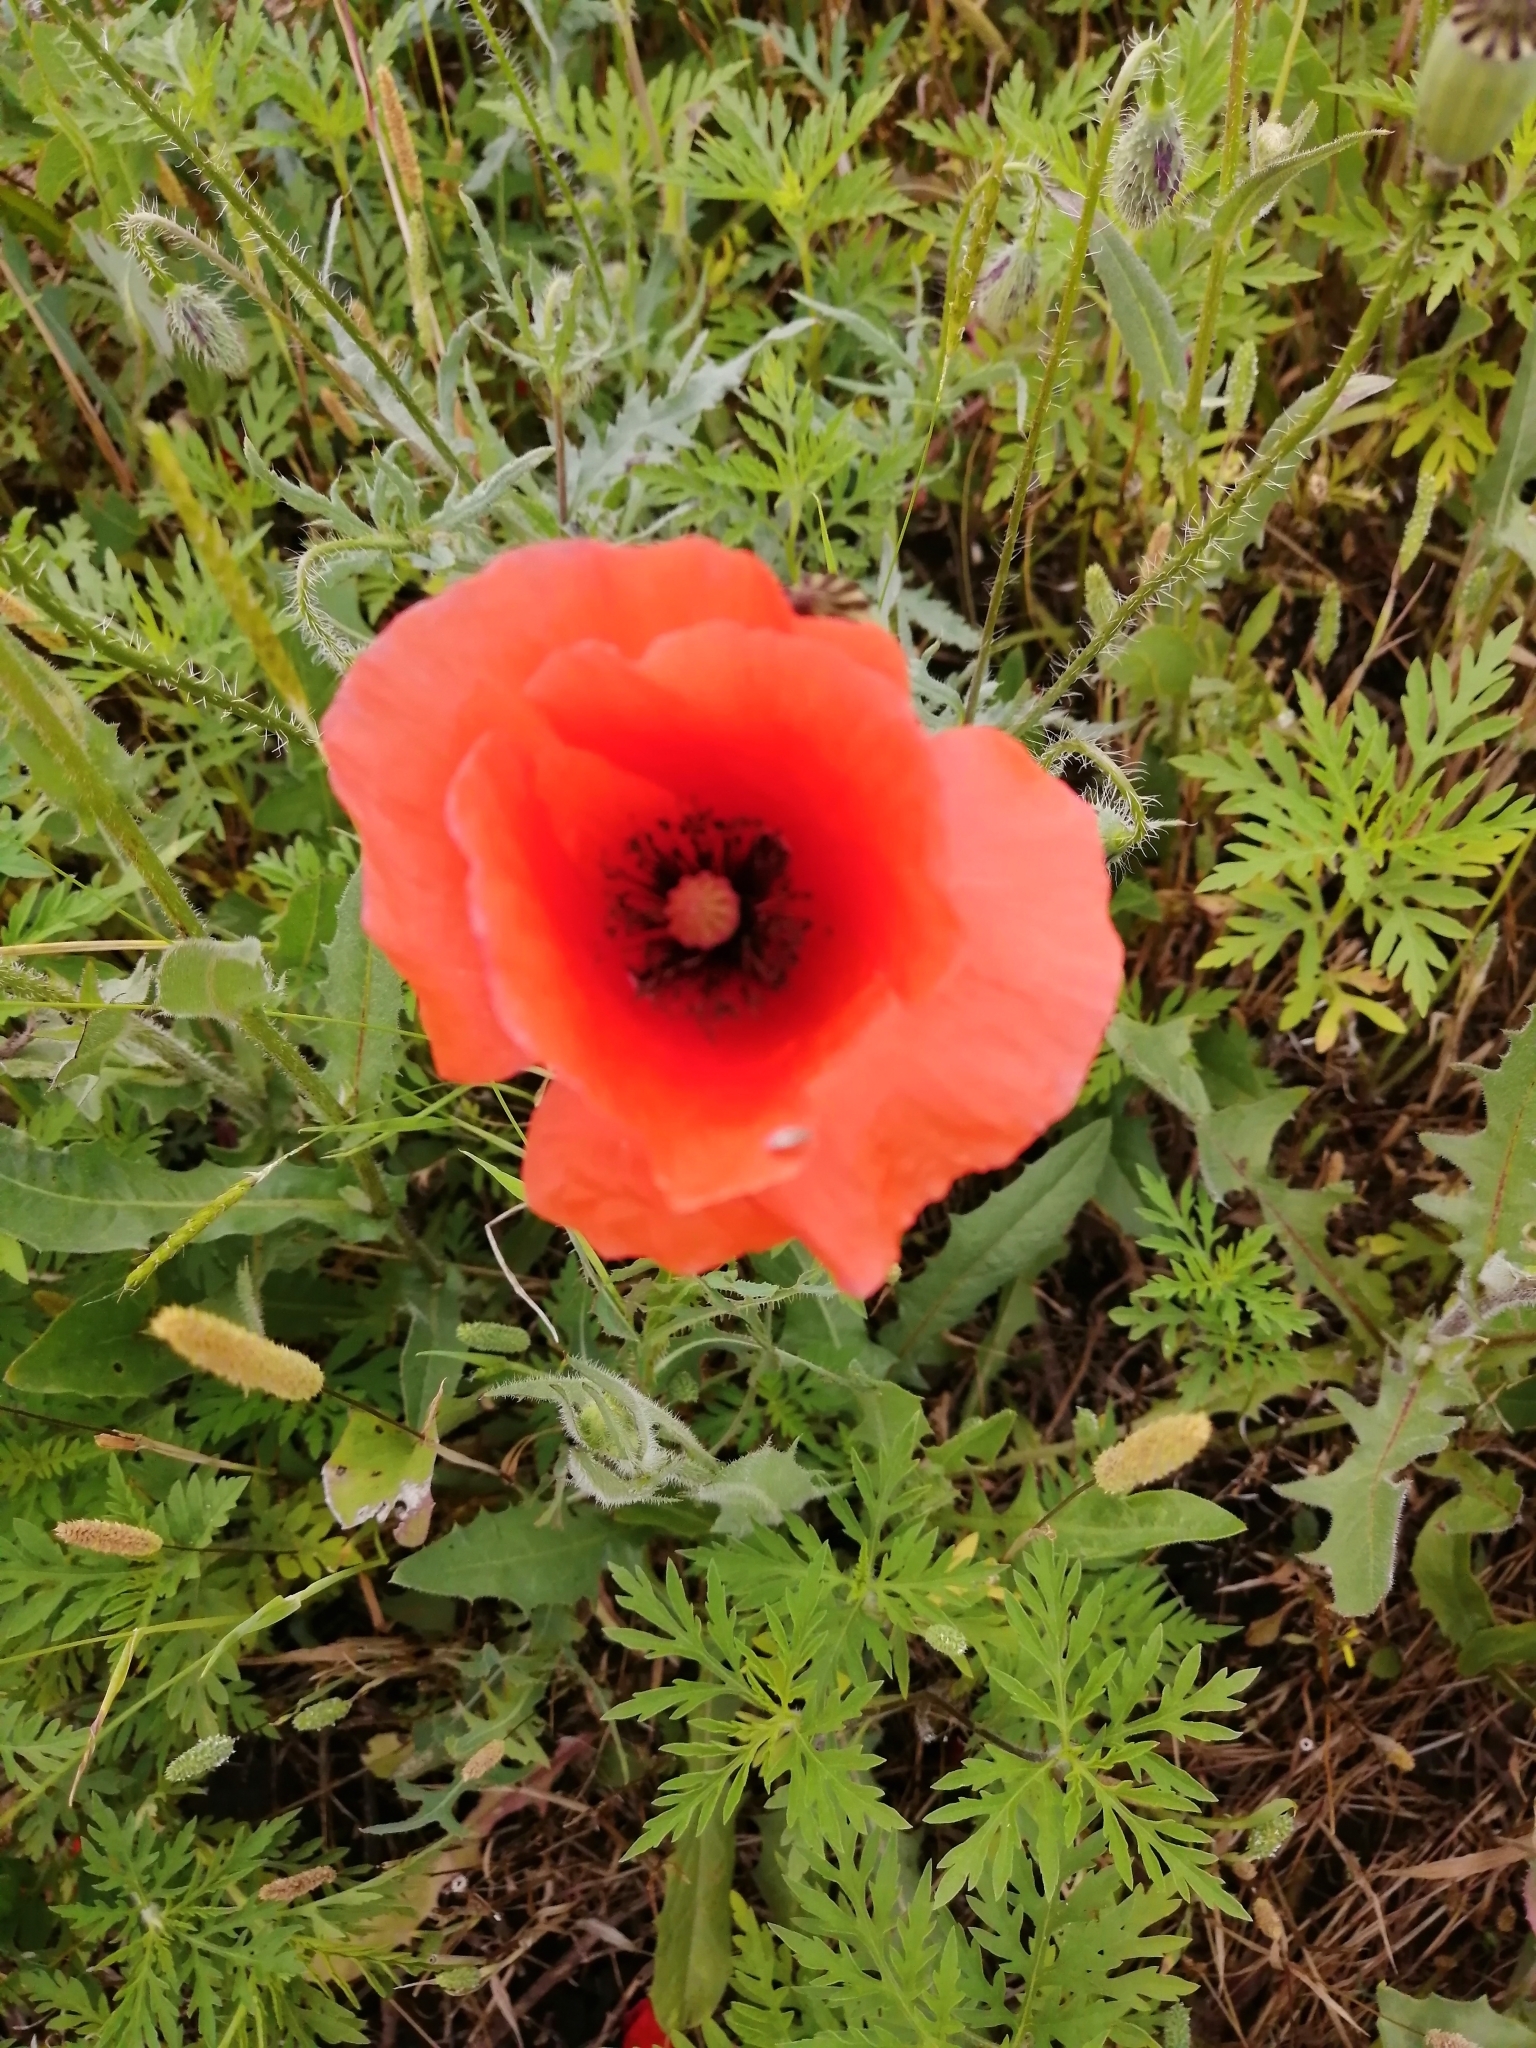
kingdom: Plantae
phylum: Tracheophyta
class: Magnoliopsida
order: Ranunculales
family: Papaveraceae
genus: Papaver
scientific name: Papaver rhoeas
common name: Corn poppy
